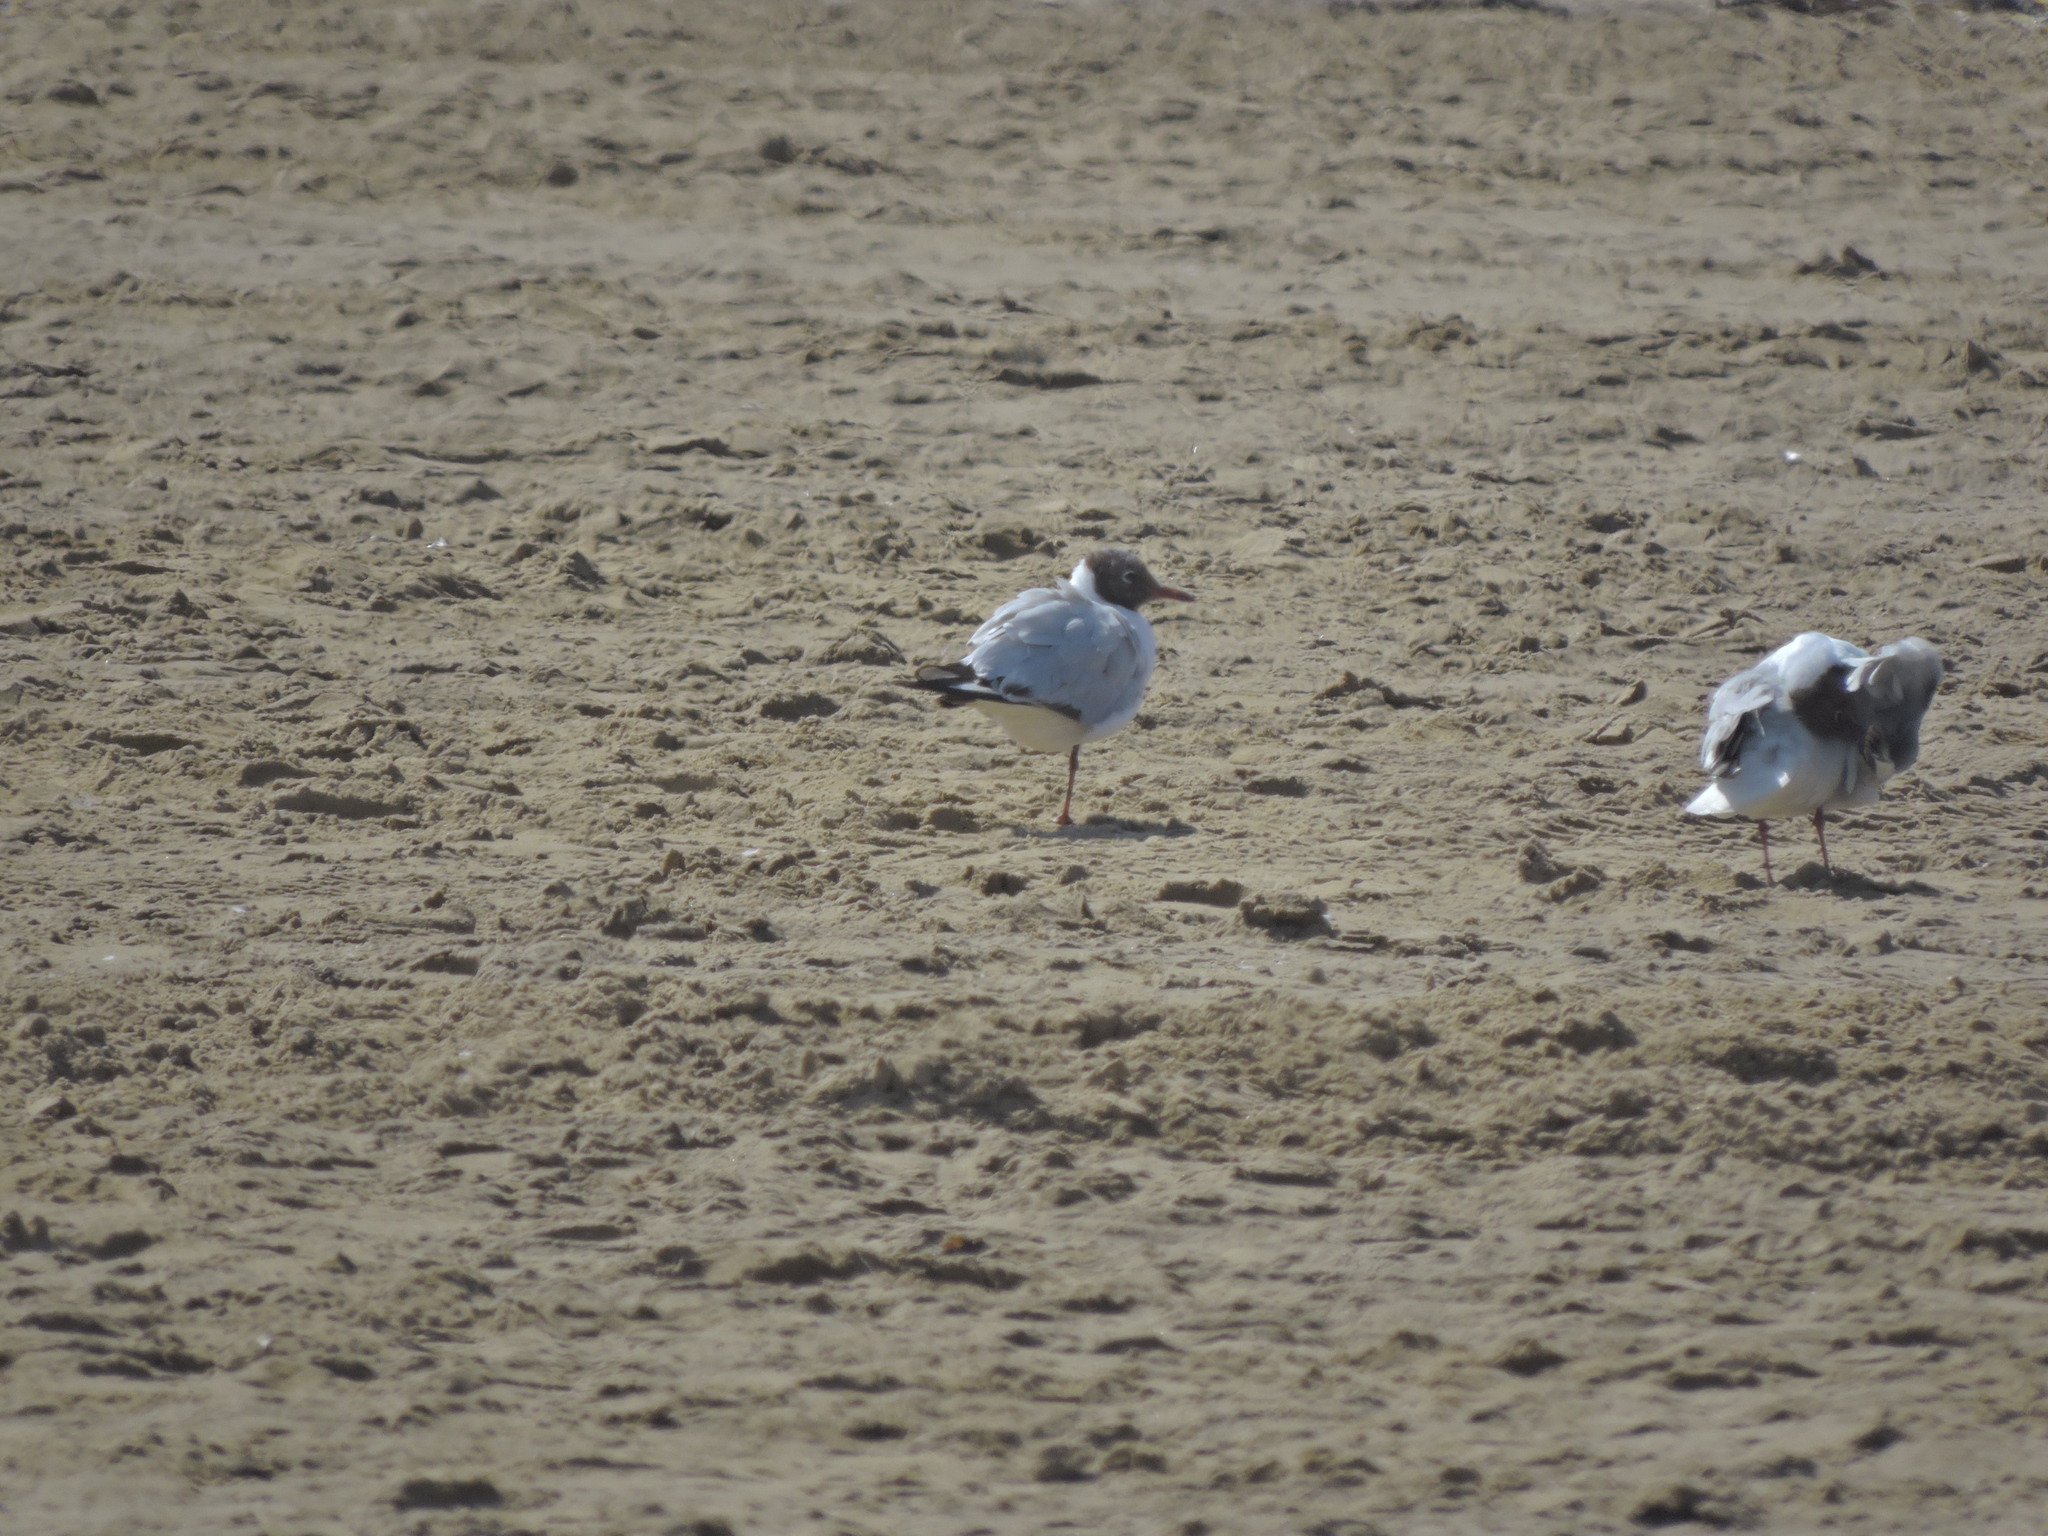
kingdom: Animalia
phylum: Chordata
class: Aves
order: Charadriiformes
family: Laridae
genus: Chroicocephalus
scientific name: Chroicocephalus ridibundus
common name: Black-headed gull
